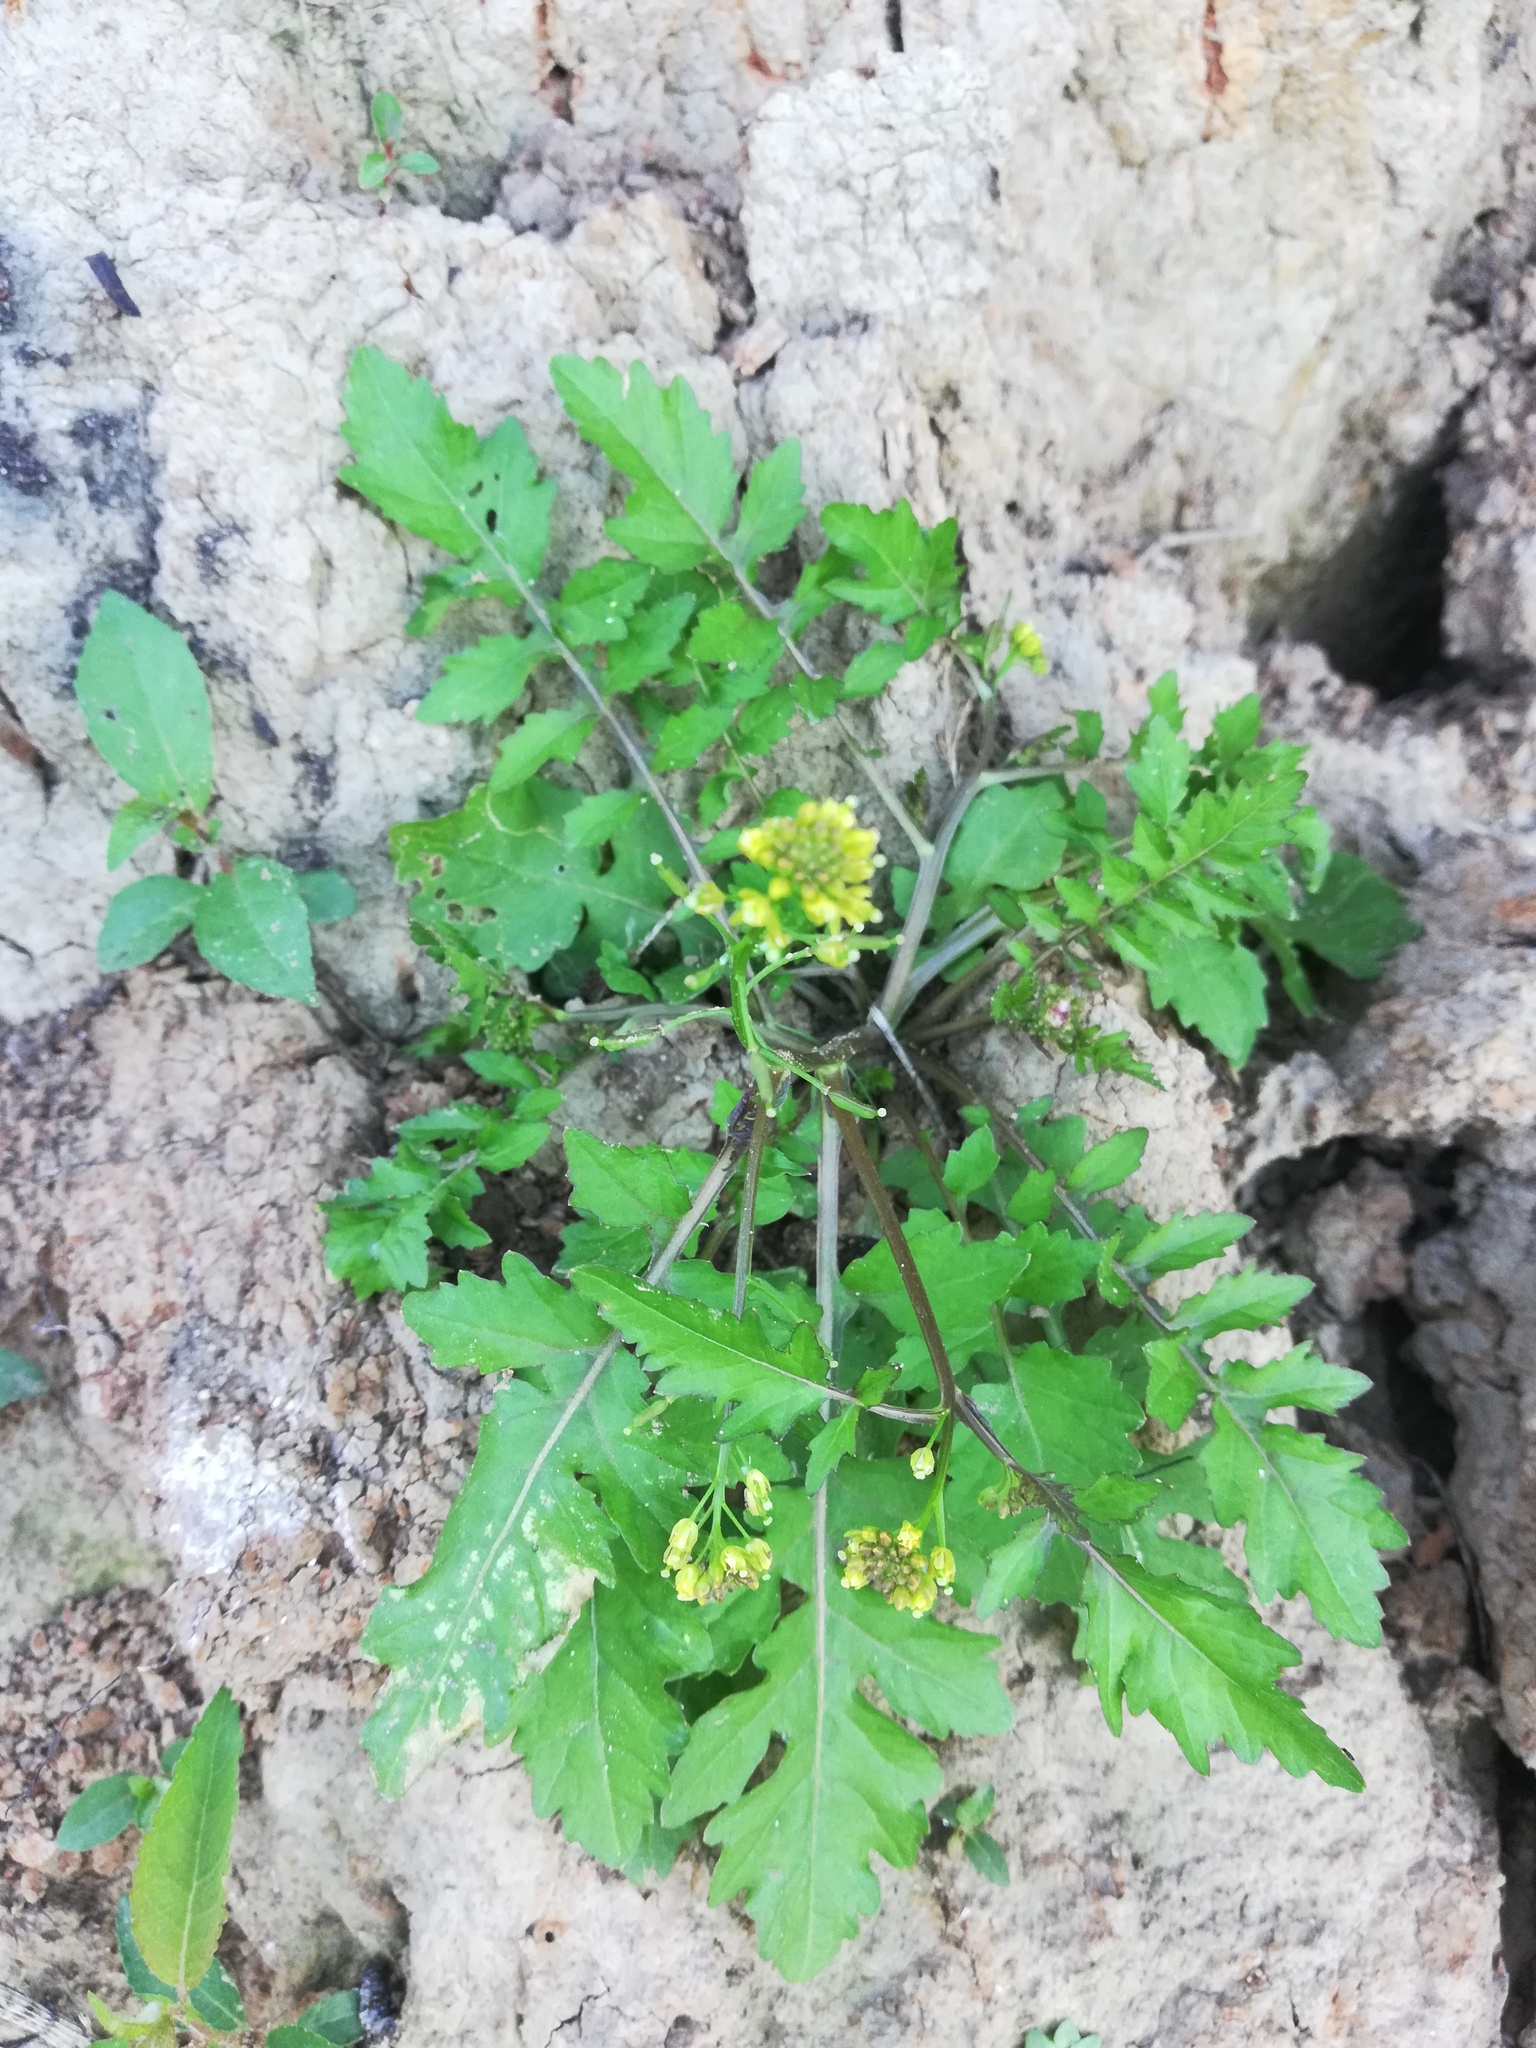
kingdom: Plantae
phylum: Tracheophyta
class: Magnoliopsida
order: Brassicales
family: Brassicaceae
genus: Rorippa
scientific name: Rorippa palustris
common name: Marsh yellow-cress
